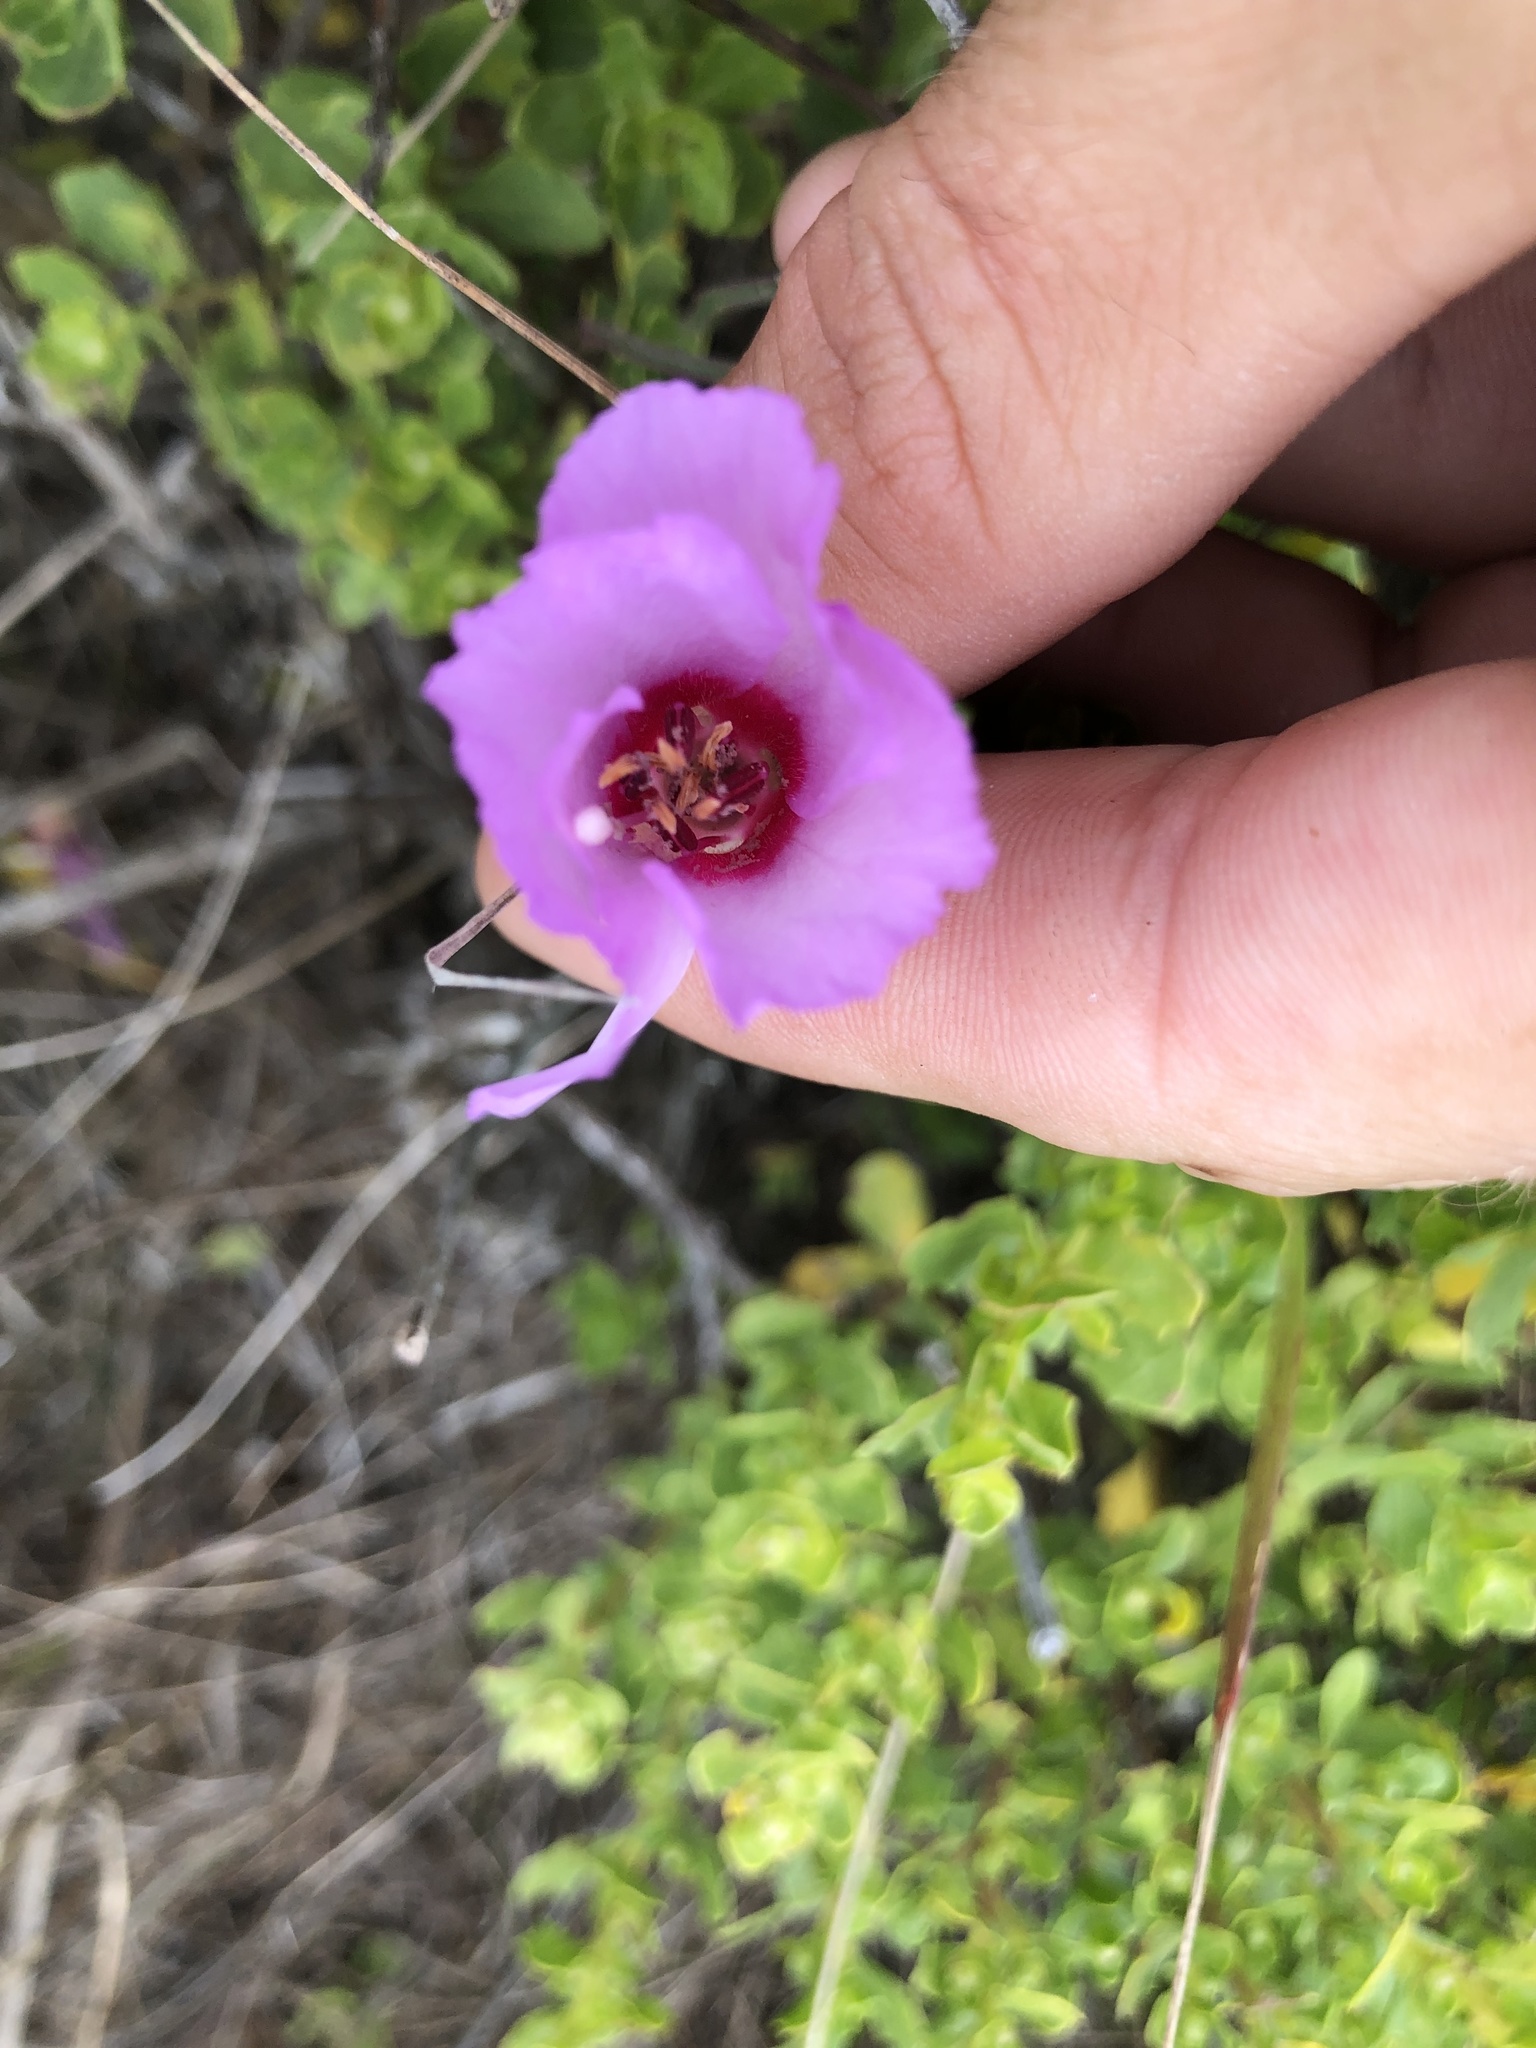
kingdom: Plantae
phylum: Tracheophyta
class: Magnoliopsida
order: Myrtales
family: Onagraceae
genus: Clarkia
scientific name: Clarkia rubicunda
